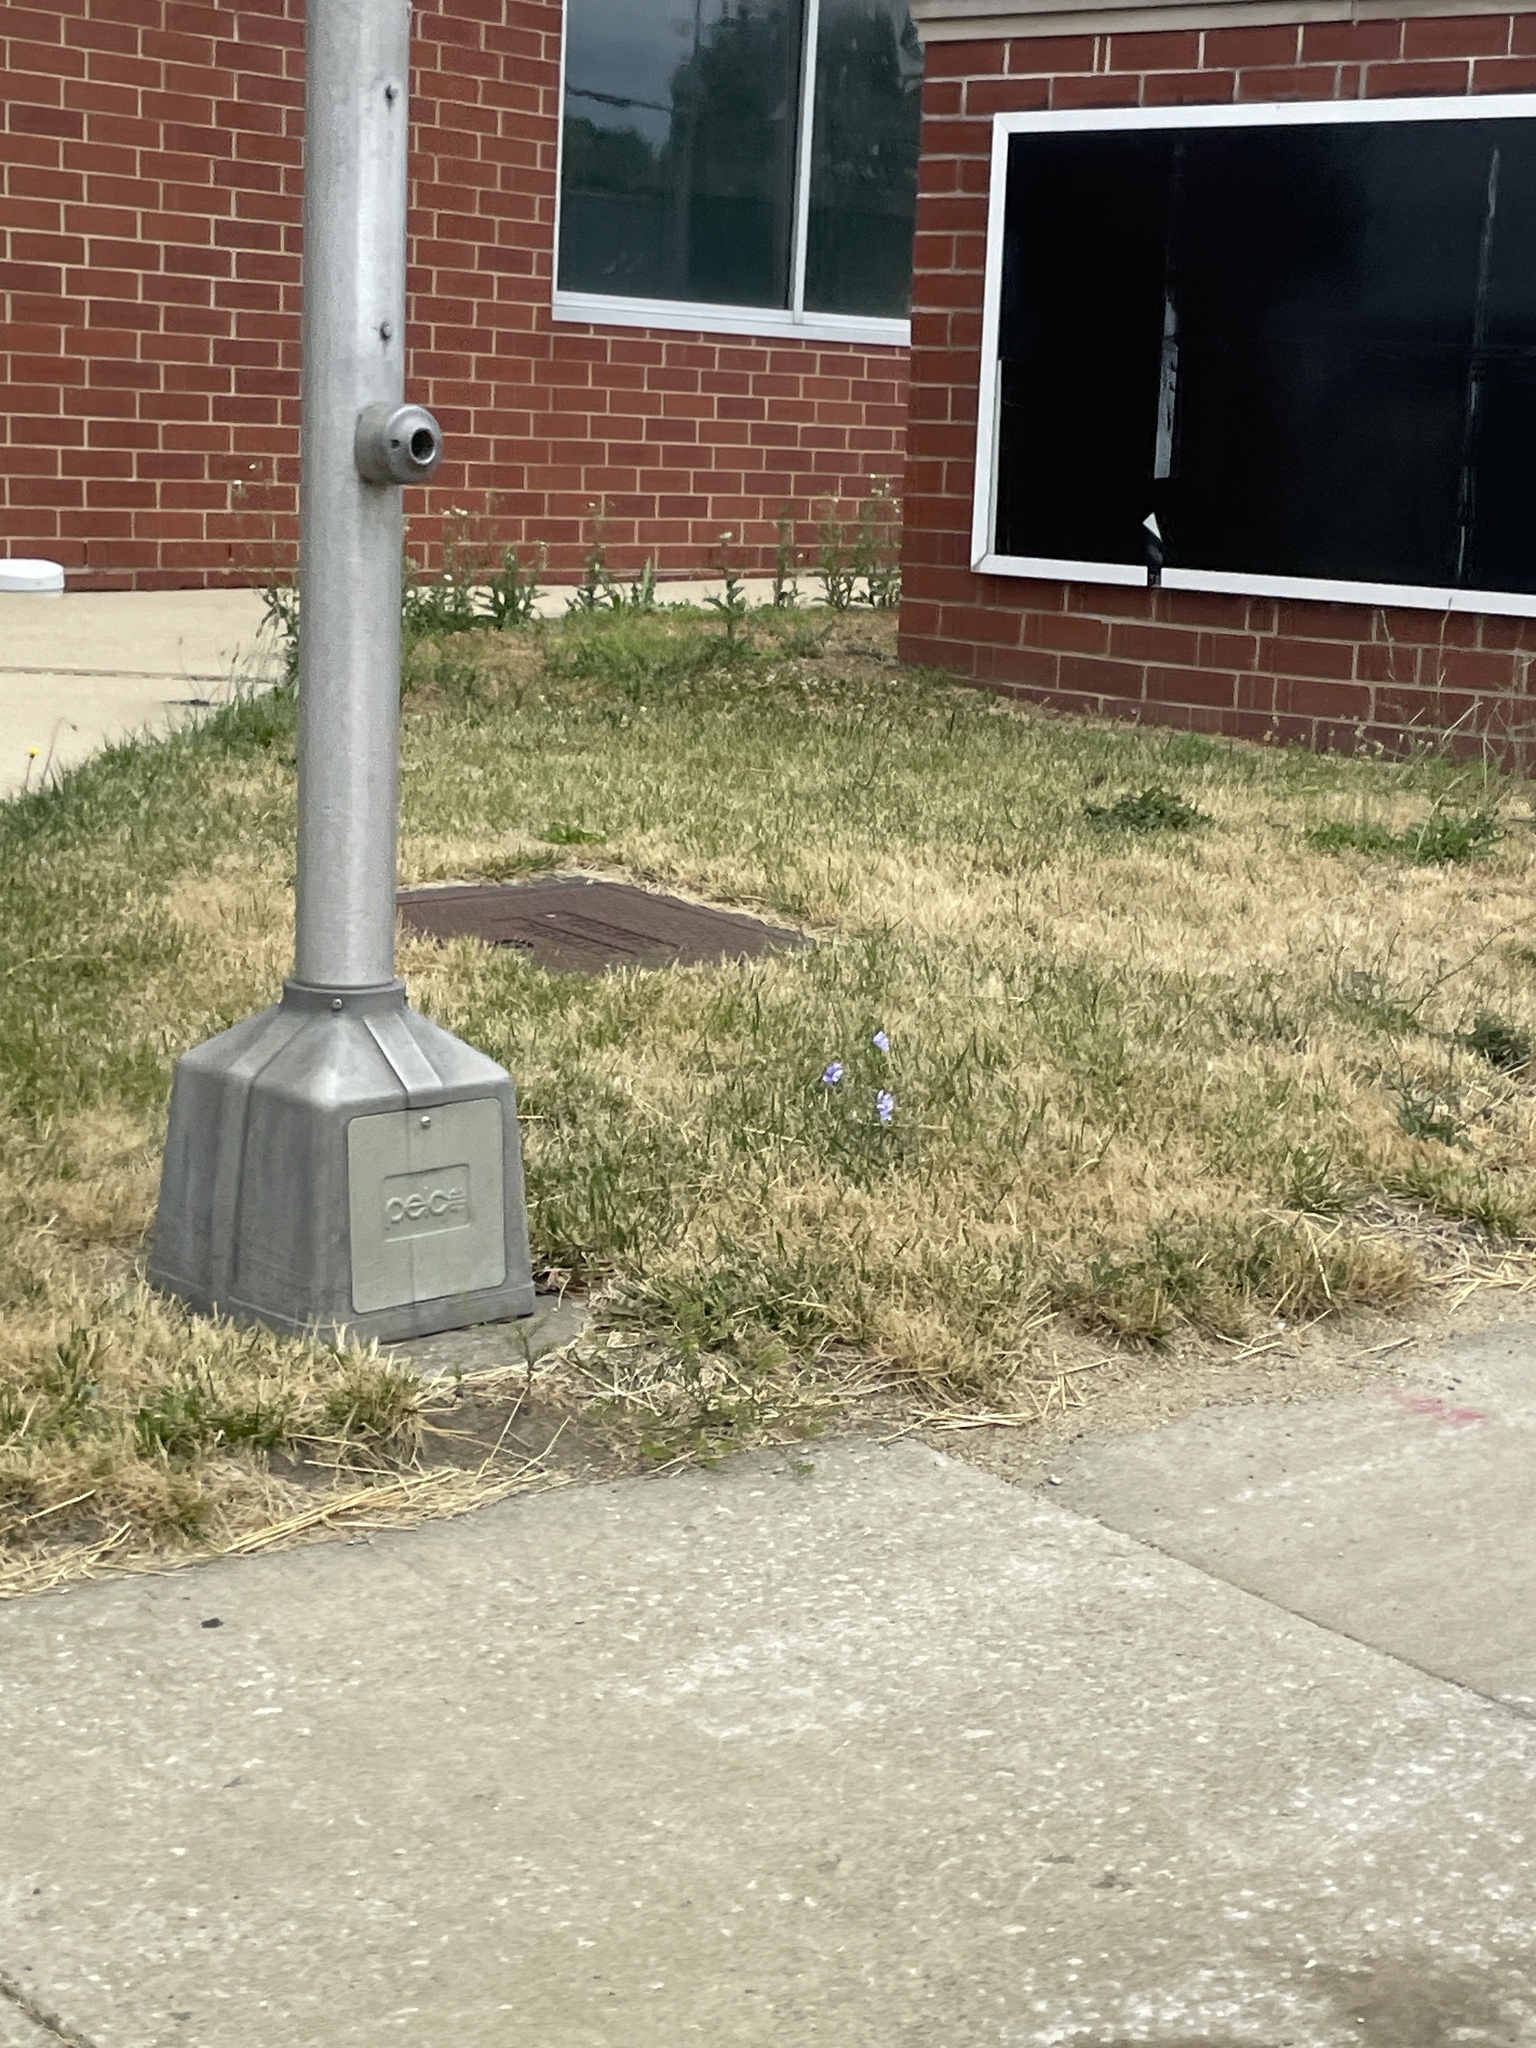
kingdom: Plantae
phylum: Tracheophyta
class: Magnoliopsida
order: Asterales
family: Asteraceae
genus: Cichorium
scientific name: Cichorium intybus
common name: Chicory
